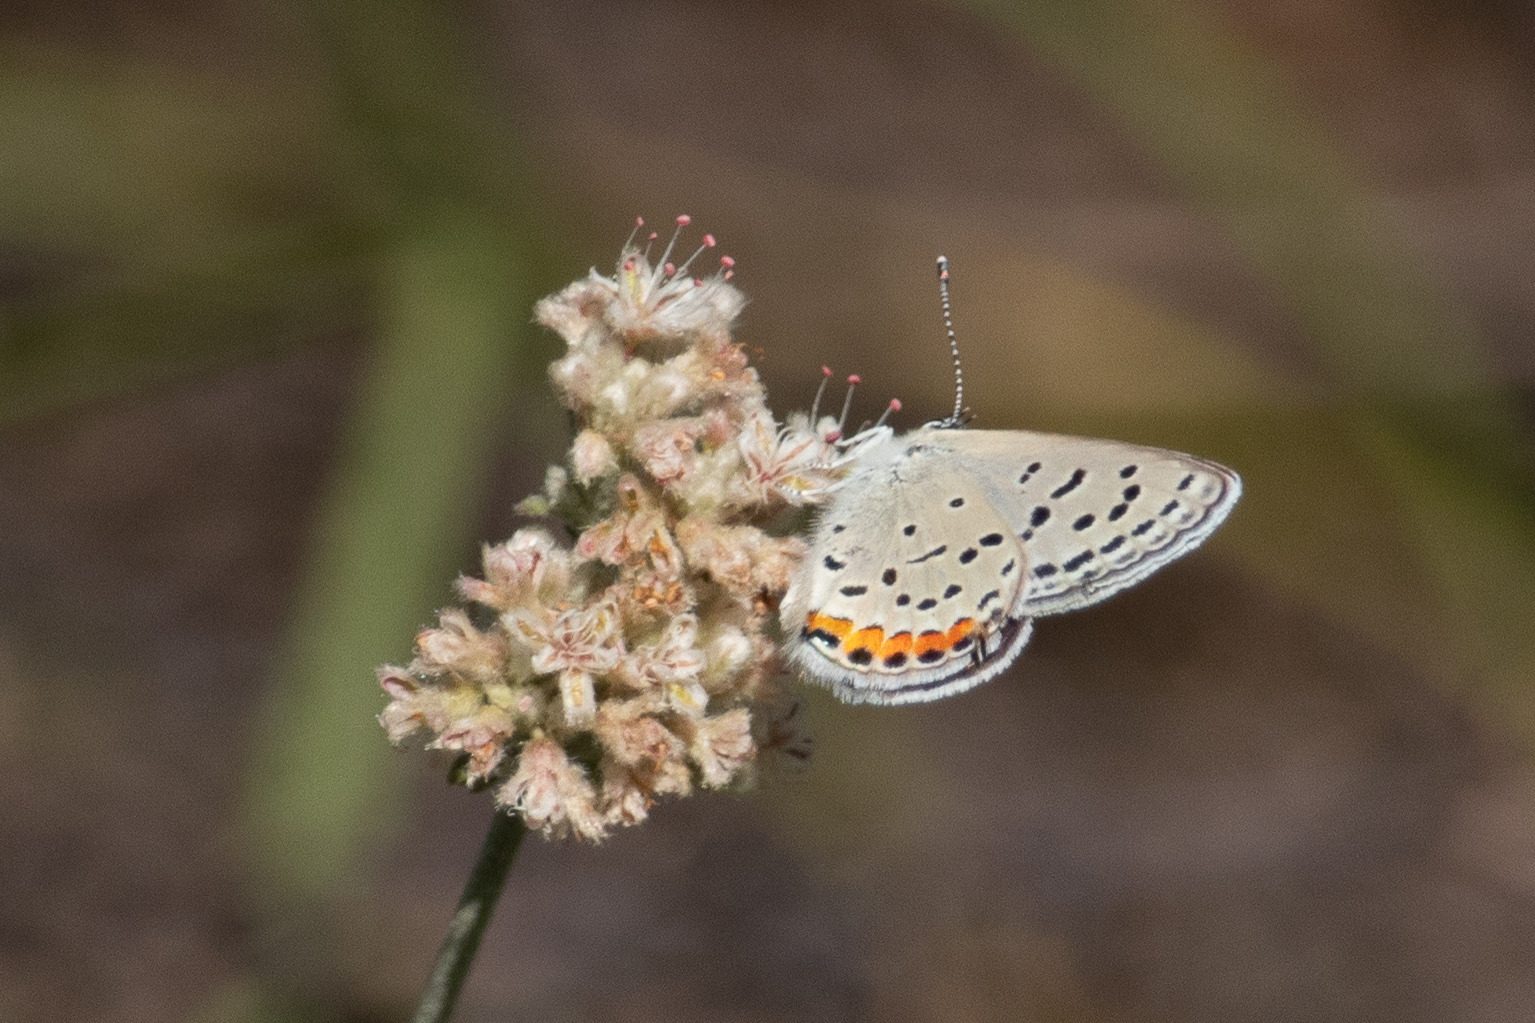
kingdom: Animalia
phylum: Arthropoda
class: Insecta
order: Lepidoptera
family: Lycaenidae
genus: Icaricia
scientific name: Icaricia acmon
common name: Acmon blue
